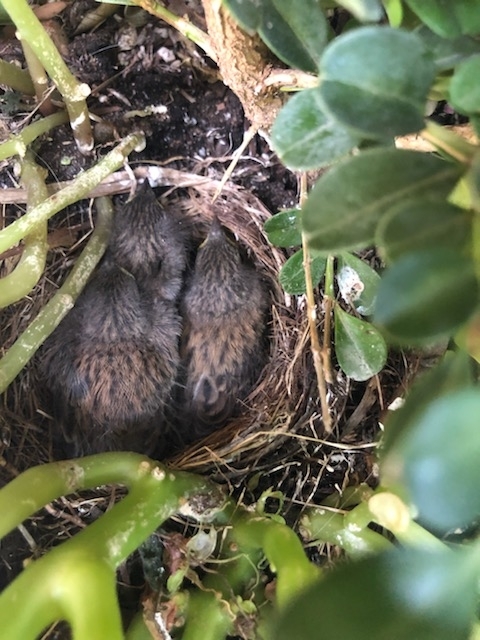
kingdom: Animalia
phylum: Chordata
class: Aves
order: Passeriformes
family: Passerellidae
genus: Junco
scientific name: Junco hyemalis
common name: Dark-eyed junco
